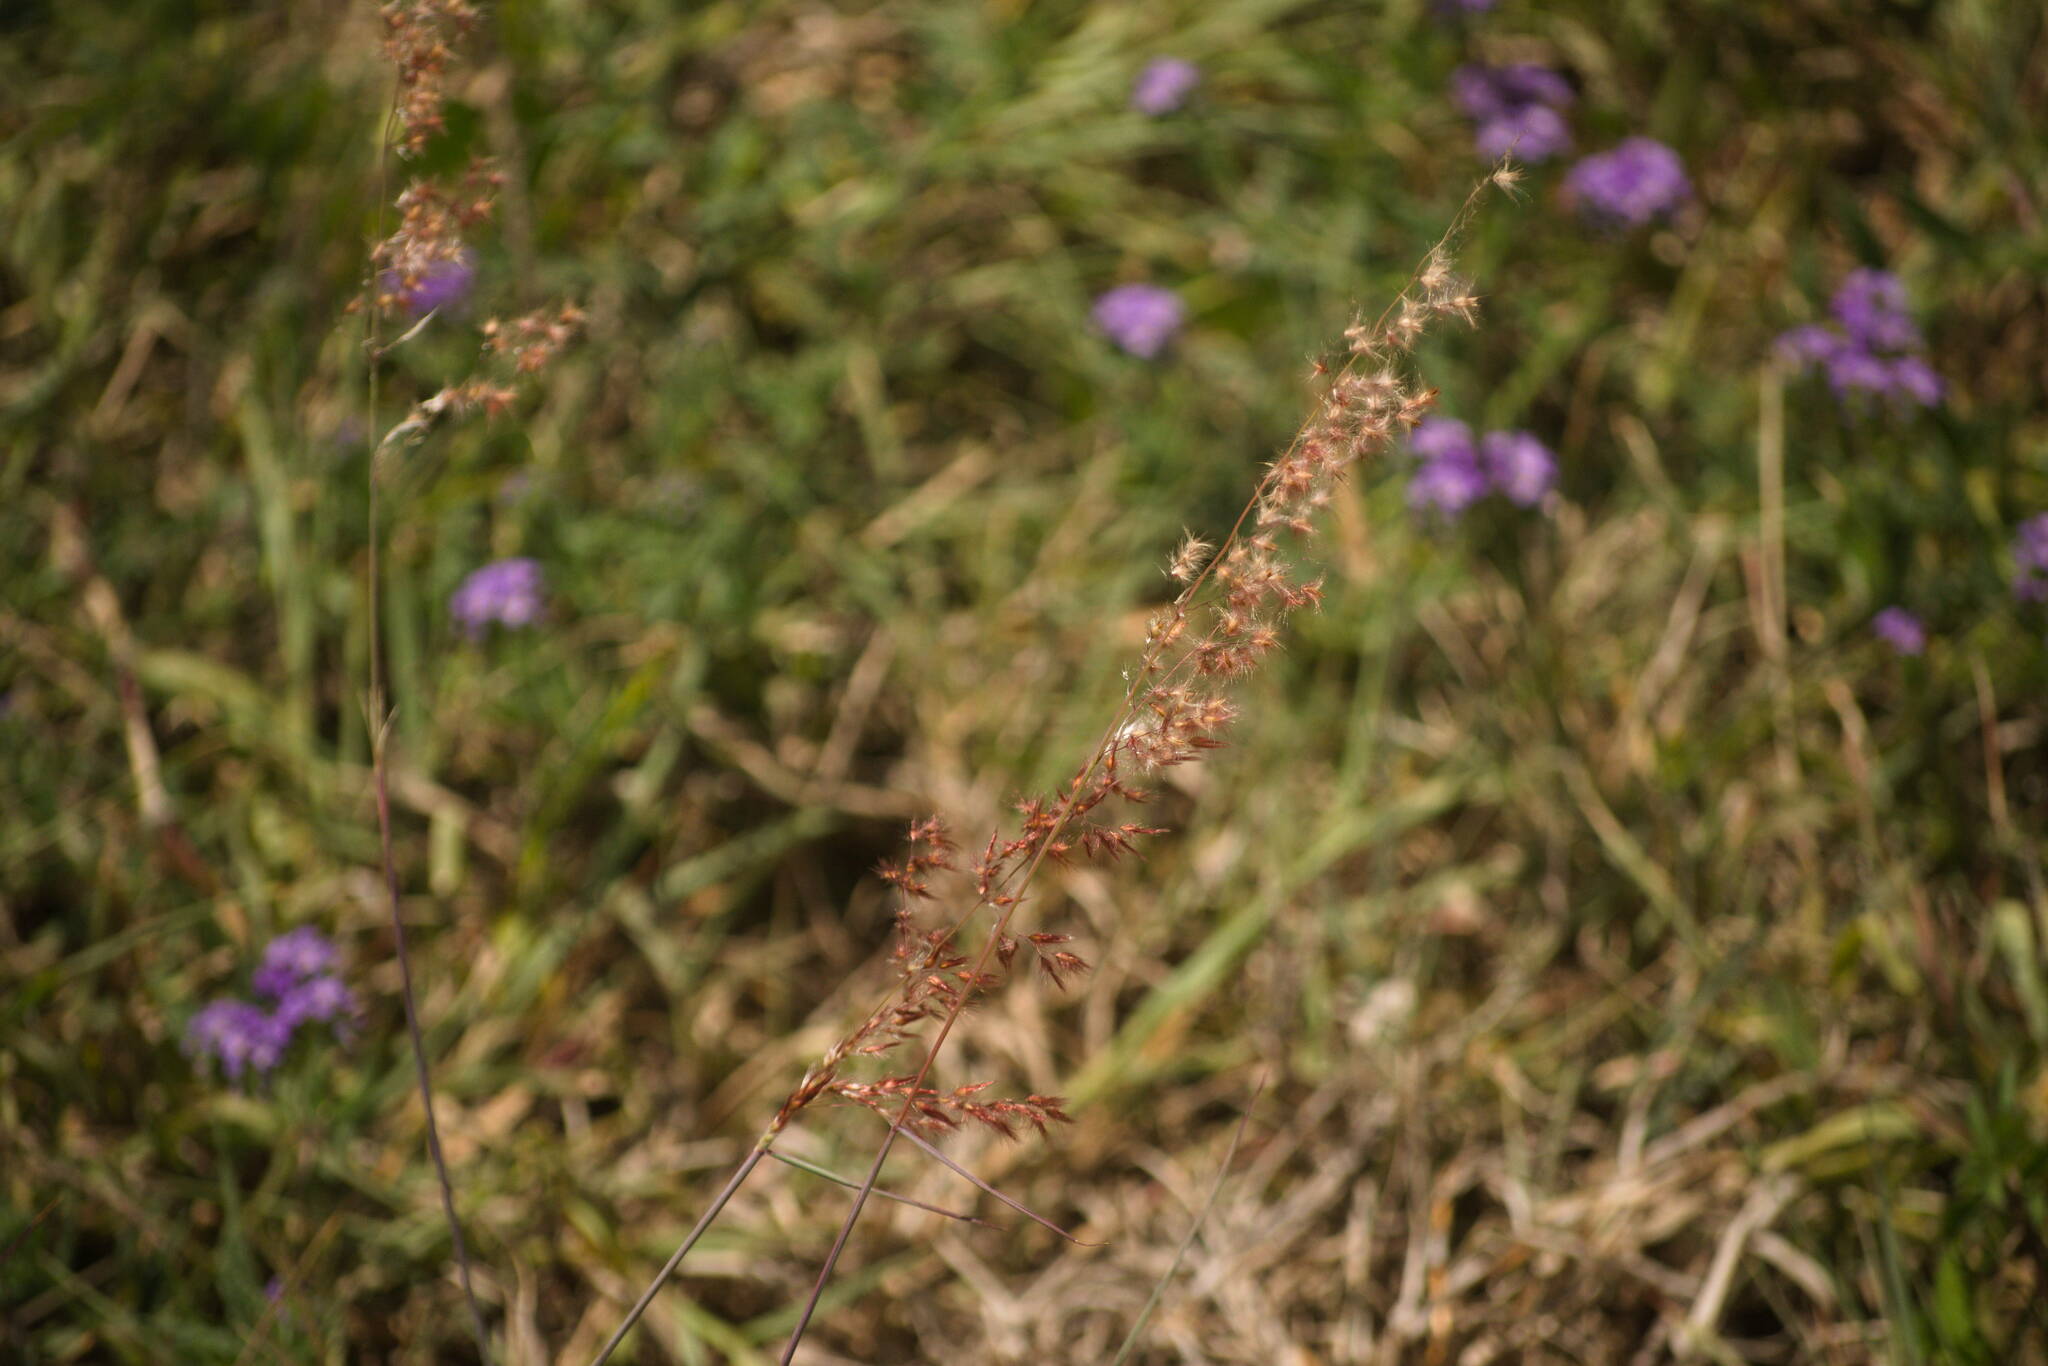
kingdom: Plantae
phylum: Tracheophyta
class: Liliopsida
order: Poales
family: Poaceae
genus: Melinis
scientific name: Melinis repens
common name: Rose natal grass
